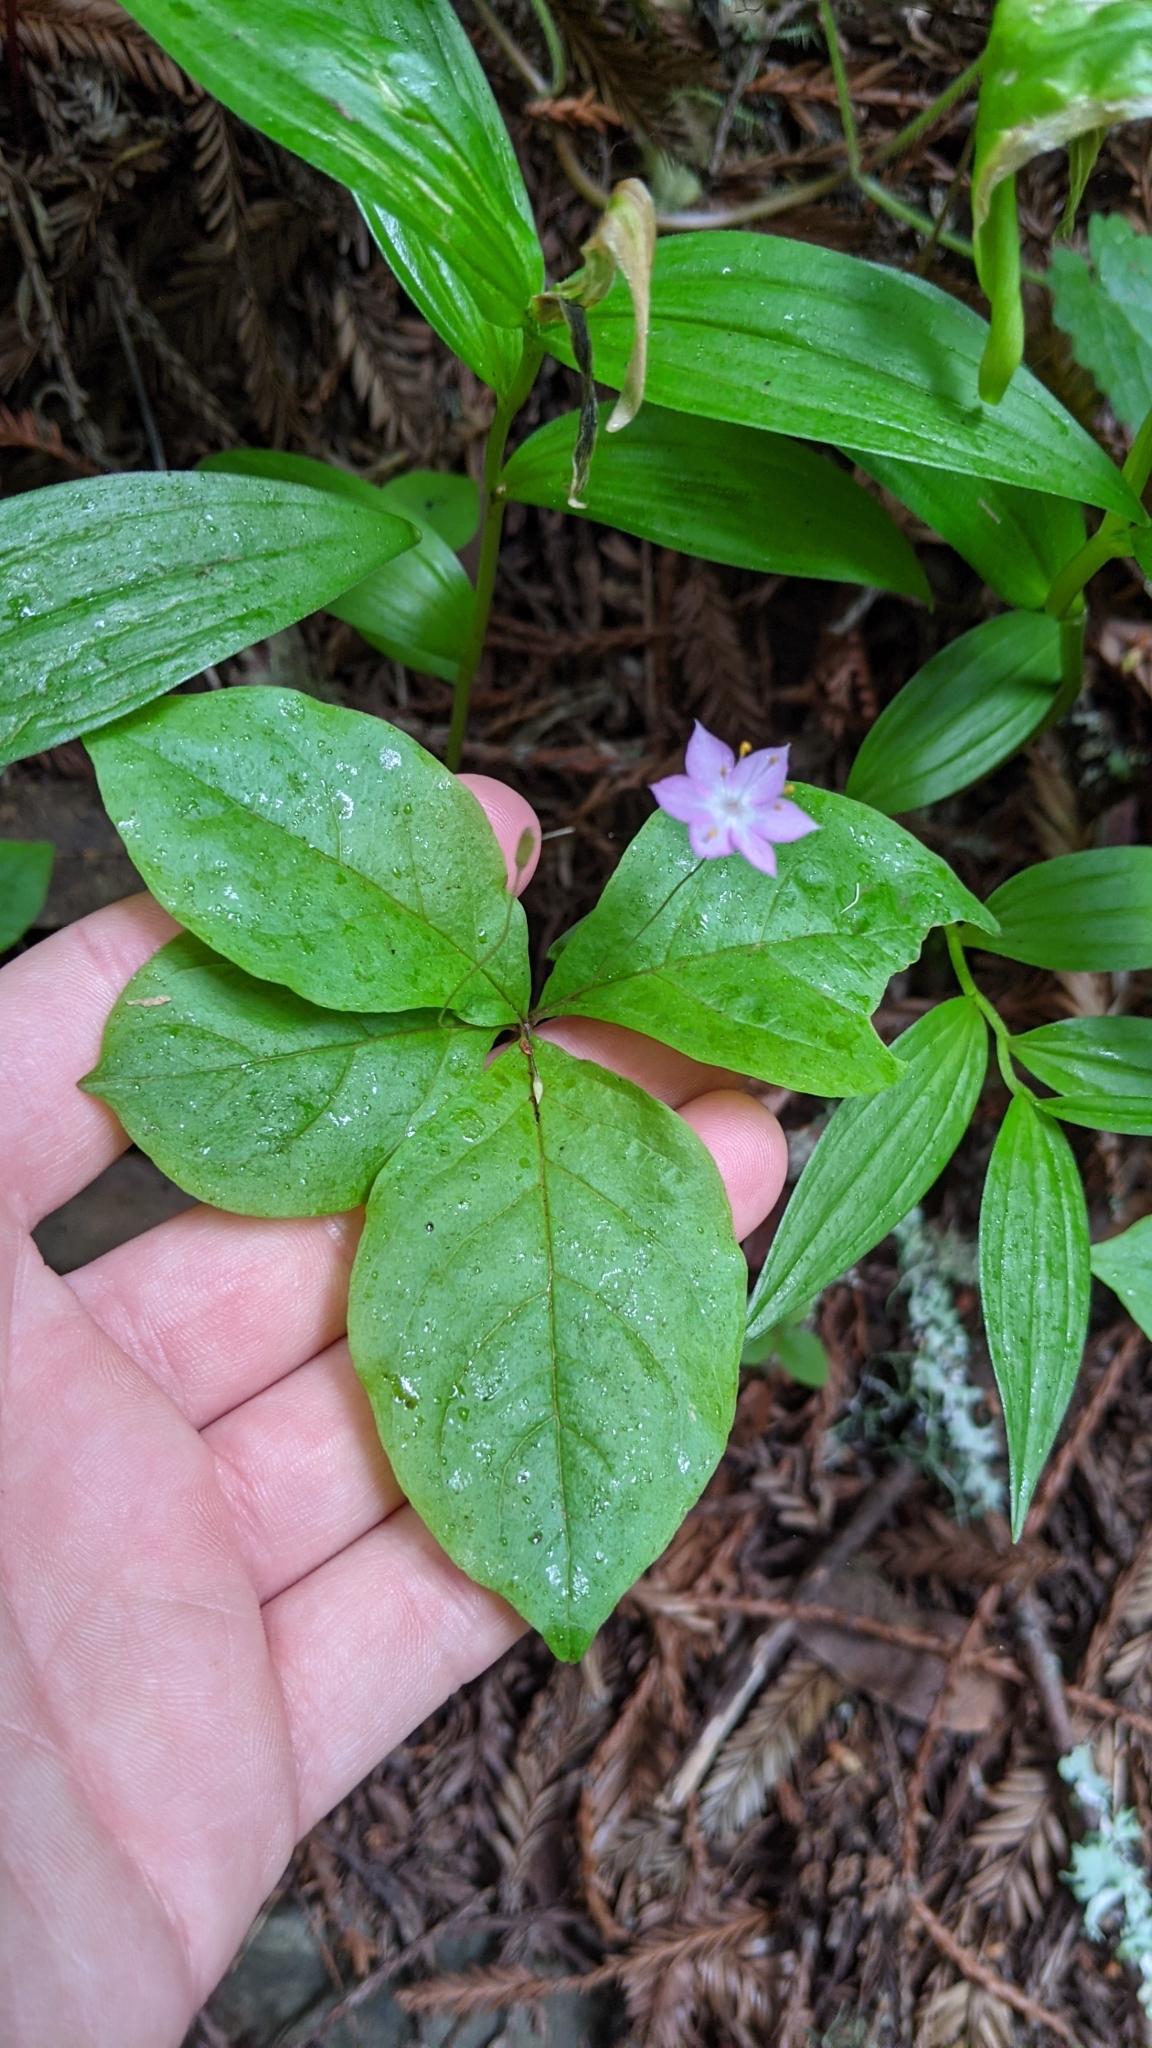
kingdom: Plantae
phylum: Tracheophyta
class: Magnoliopsida
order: Ericales
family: Primulaceae
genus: Lysimachia
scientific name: Lysimachia latifolia
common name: Pacific starflower
